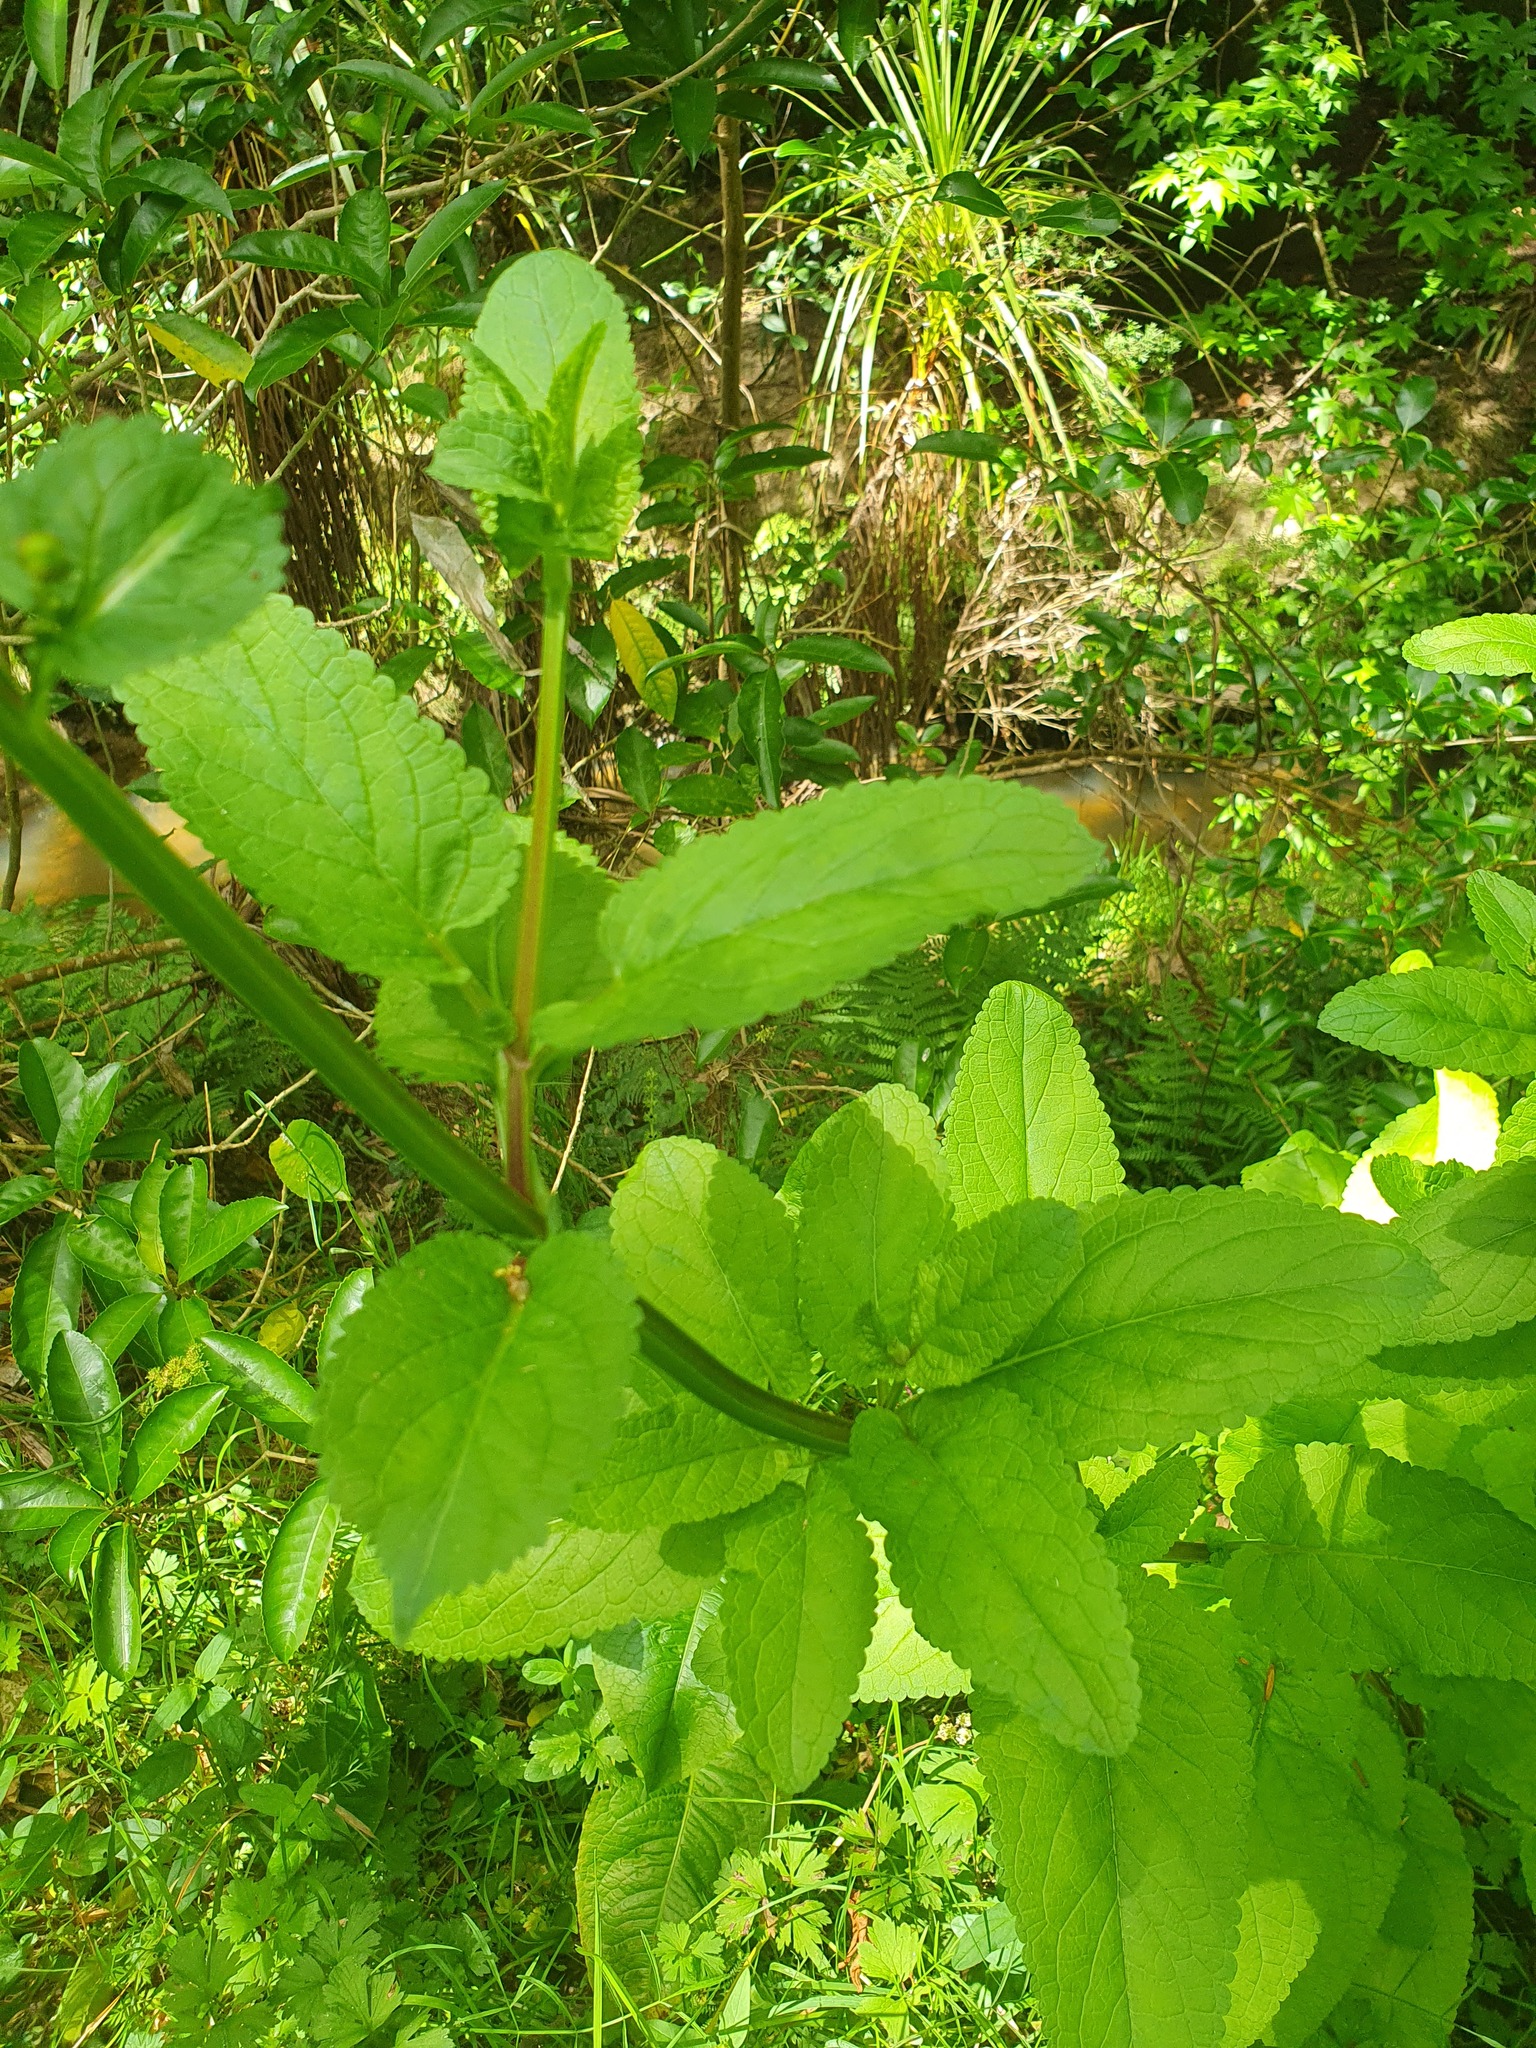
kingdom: Plantae
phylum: Tracheophyta
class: Magnoliopsida
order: Lamiales
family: Scrophulariaceae
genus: Scrophularia
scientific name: Scrophularia auriculata
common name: Water betony
